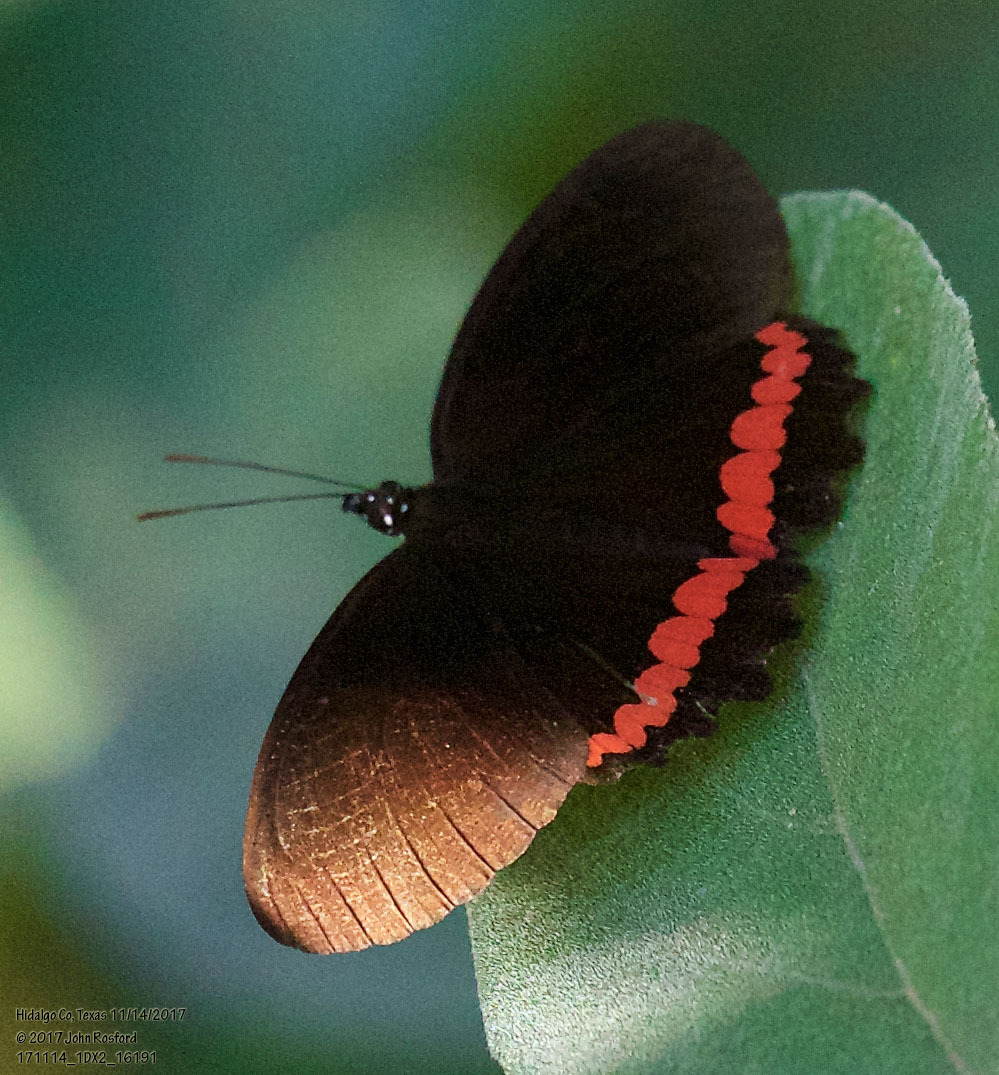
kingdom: Animalia
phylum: Arthropoda
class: Insecta
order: Lepidoptera
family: Nymphalidae
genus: Biblis
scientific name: Biblis aganisa
